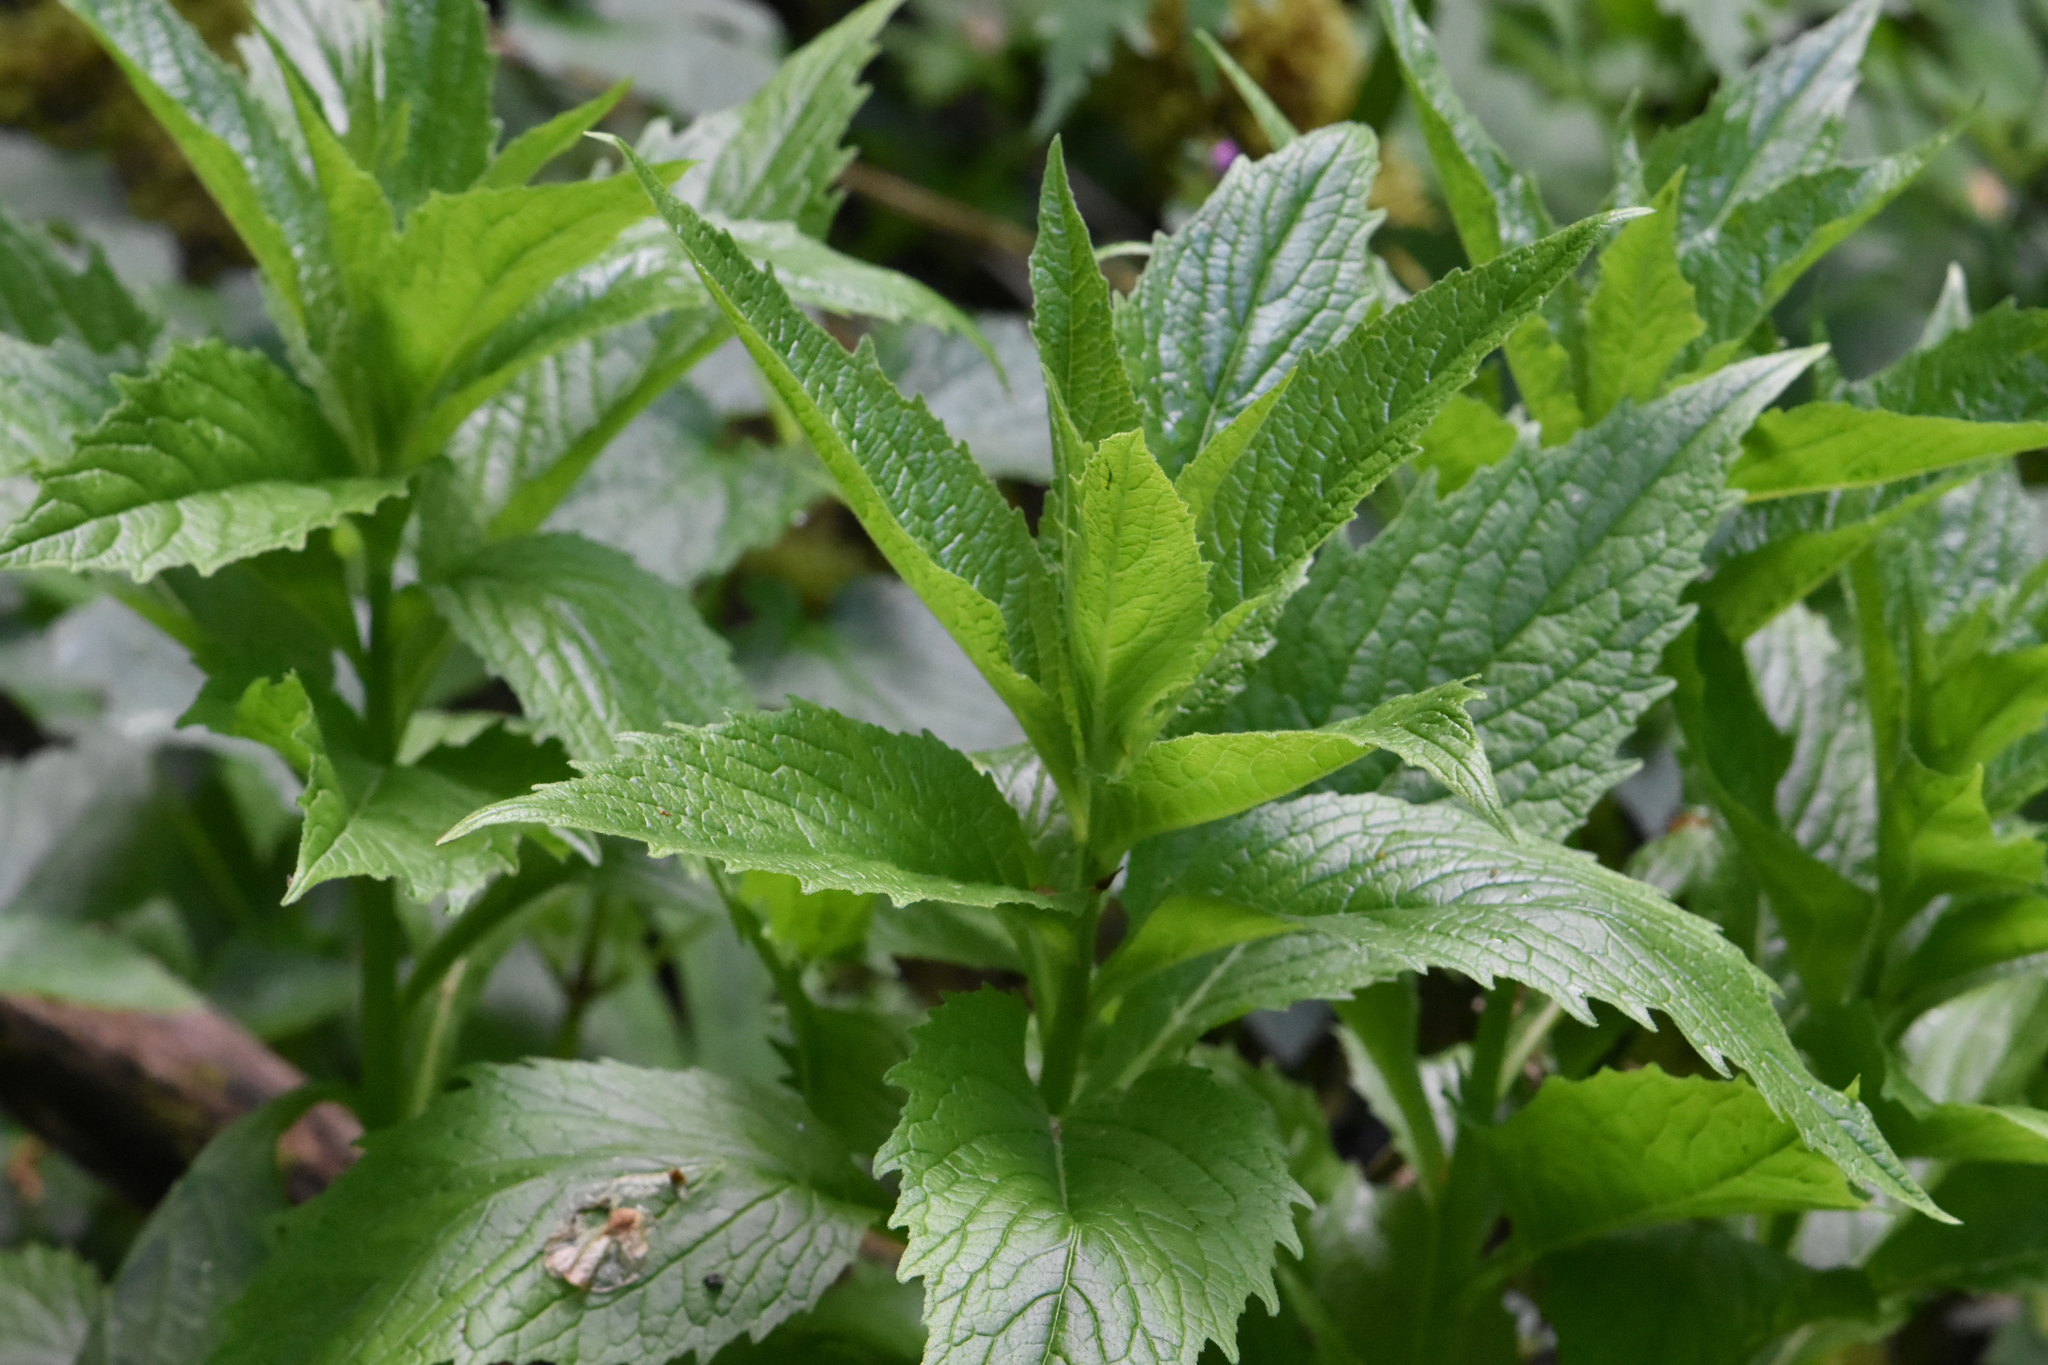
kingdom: Plantae
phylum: Tracheophyta
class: Magnoliopsida
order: Asterales
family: Campanulaceae
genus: Campanula
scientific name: Campanula latifolia
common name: Giant bellflower
